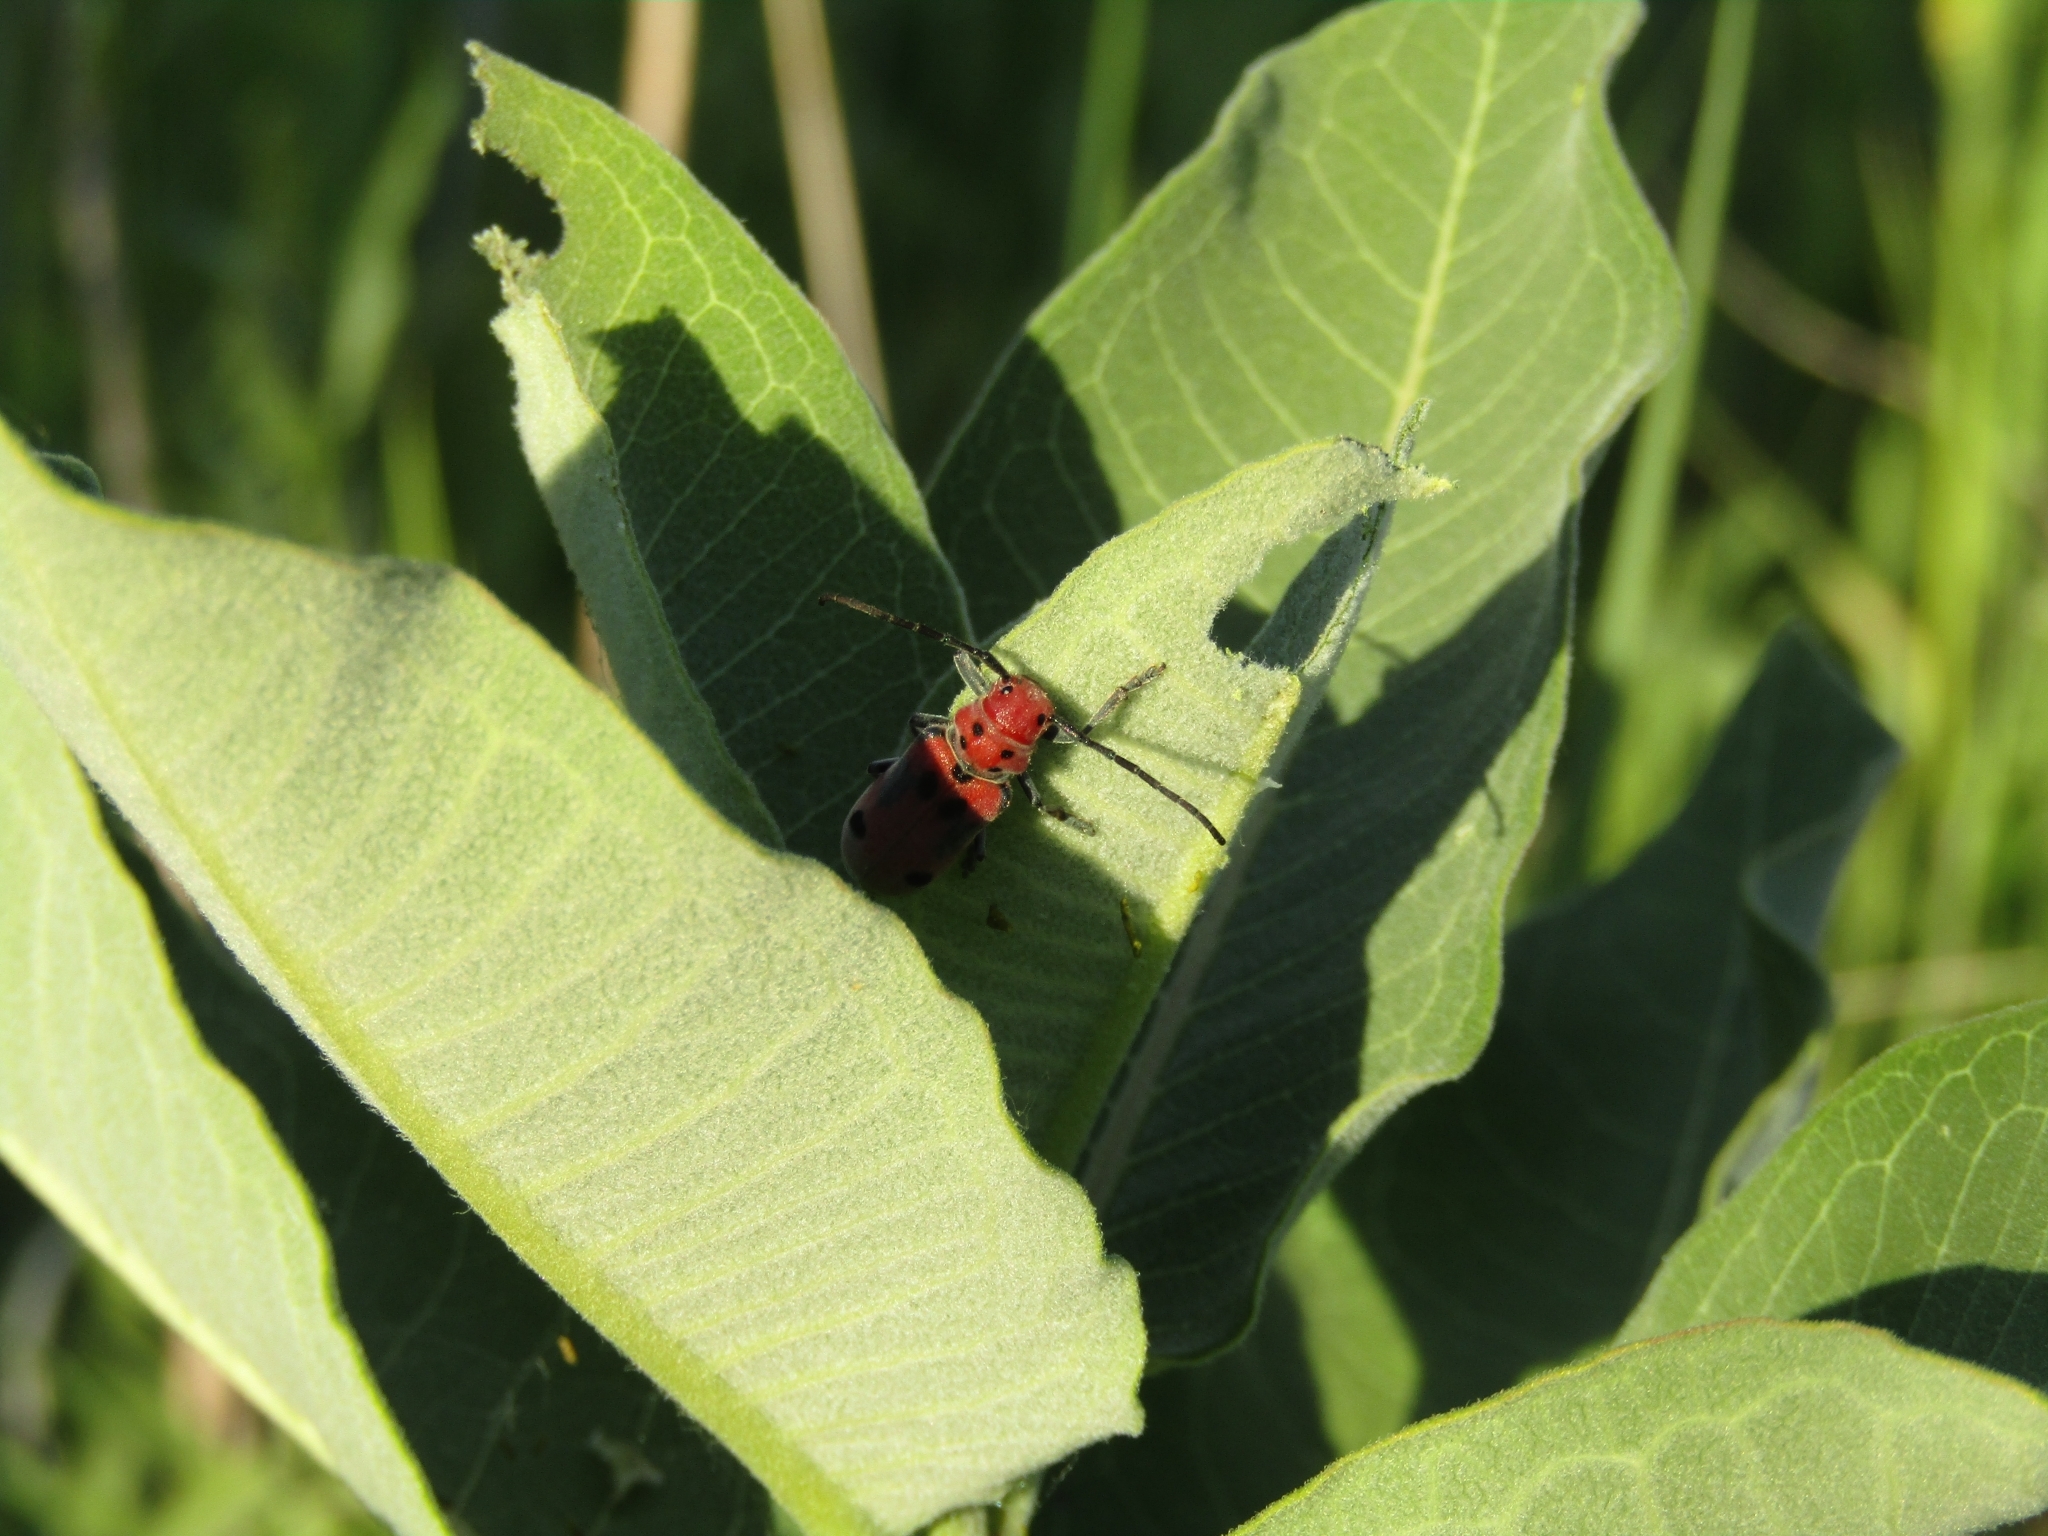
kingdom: Animalia
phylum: Arthropoda
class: Insecta
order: Coleoptera
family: Cerambycidae
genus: Tetraopes
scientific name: Tetraopes tetrophthalmus
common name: Red milkweed beetle
